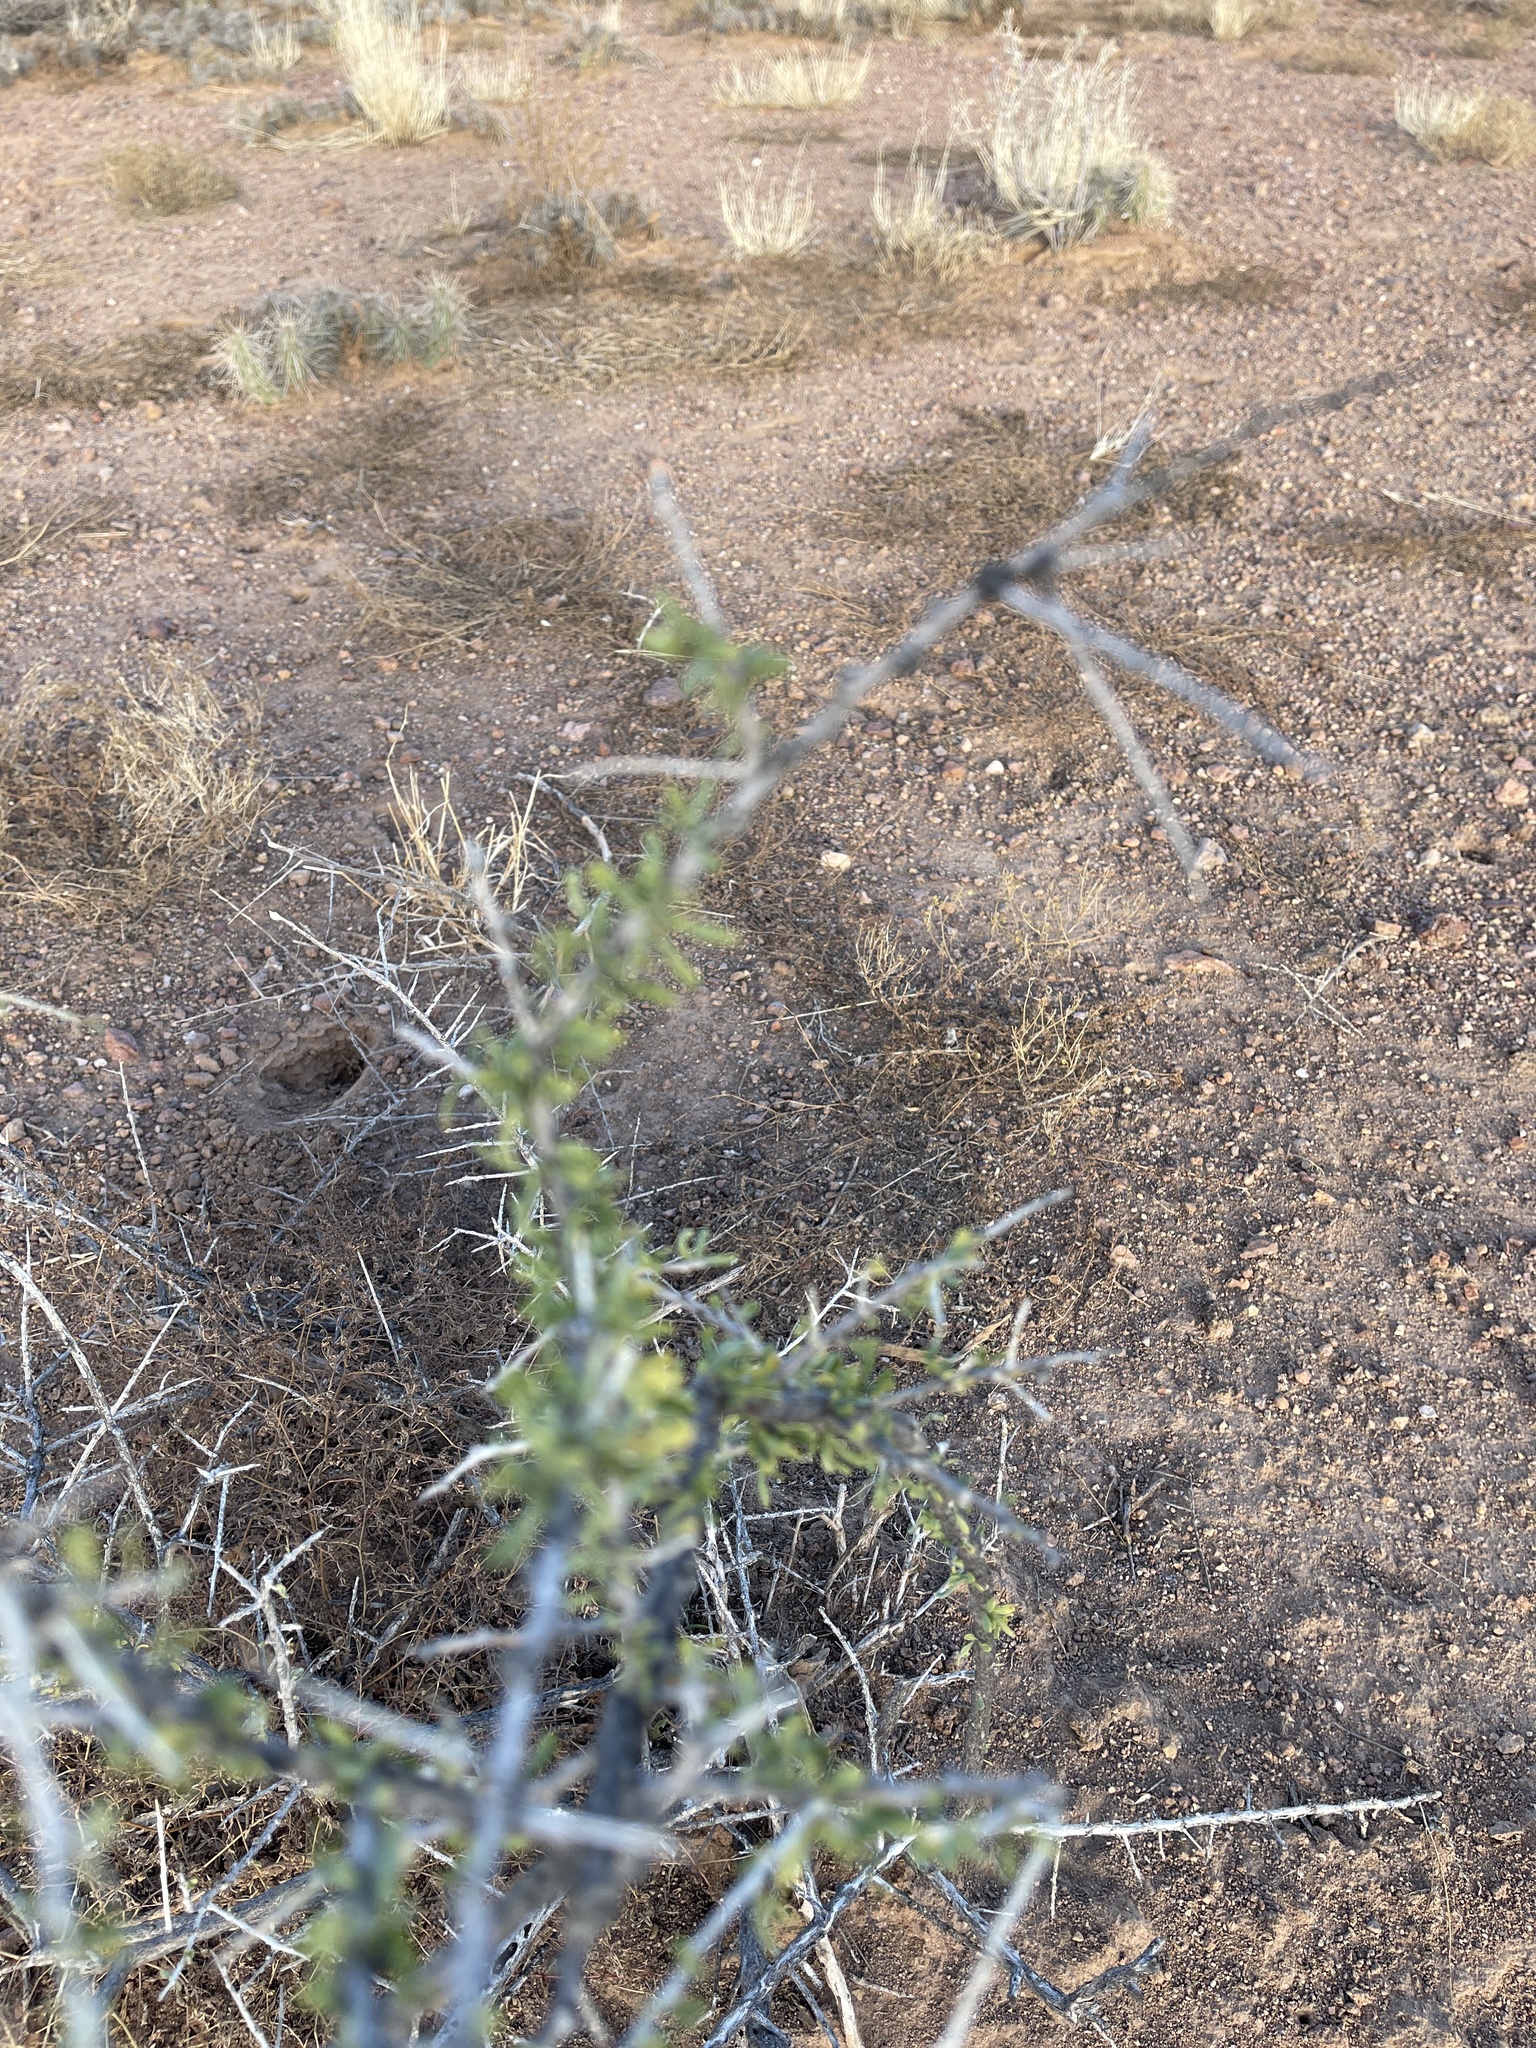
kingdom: Plantae
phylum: Tracheophyta
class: Magnoliopsida
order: Solanales
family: Solanaceae
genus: Lycium
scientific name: Lycium andersonii
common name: Water-jacket
